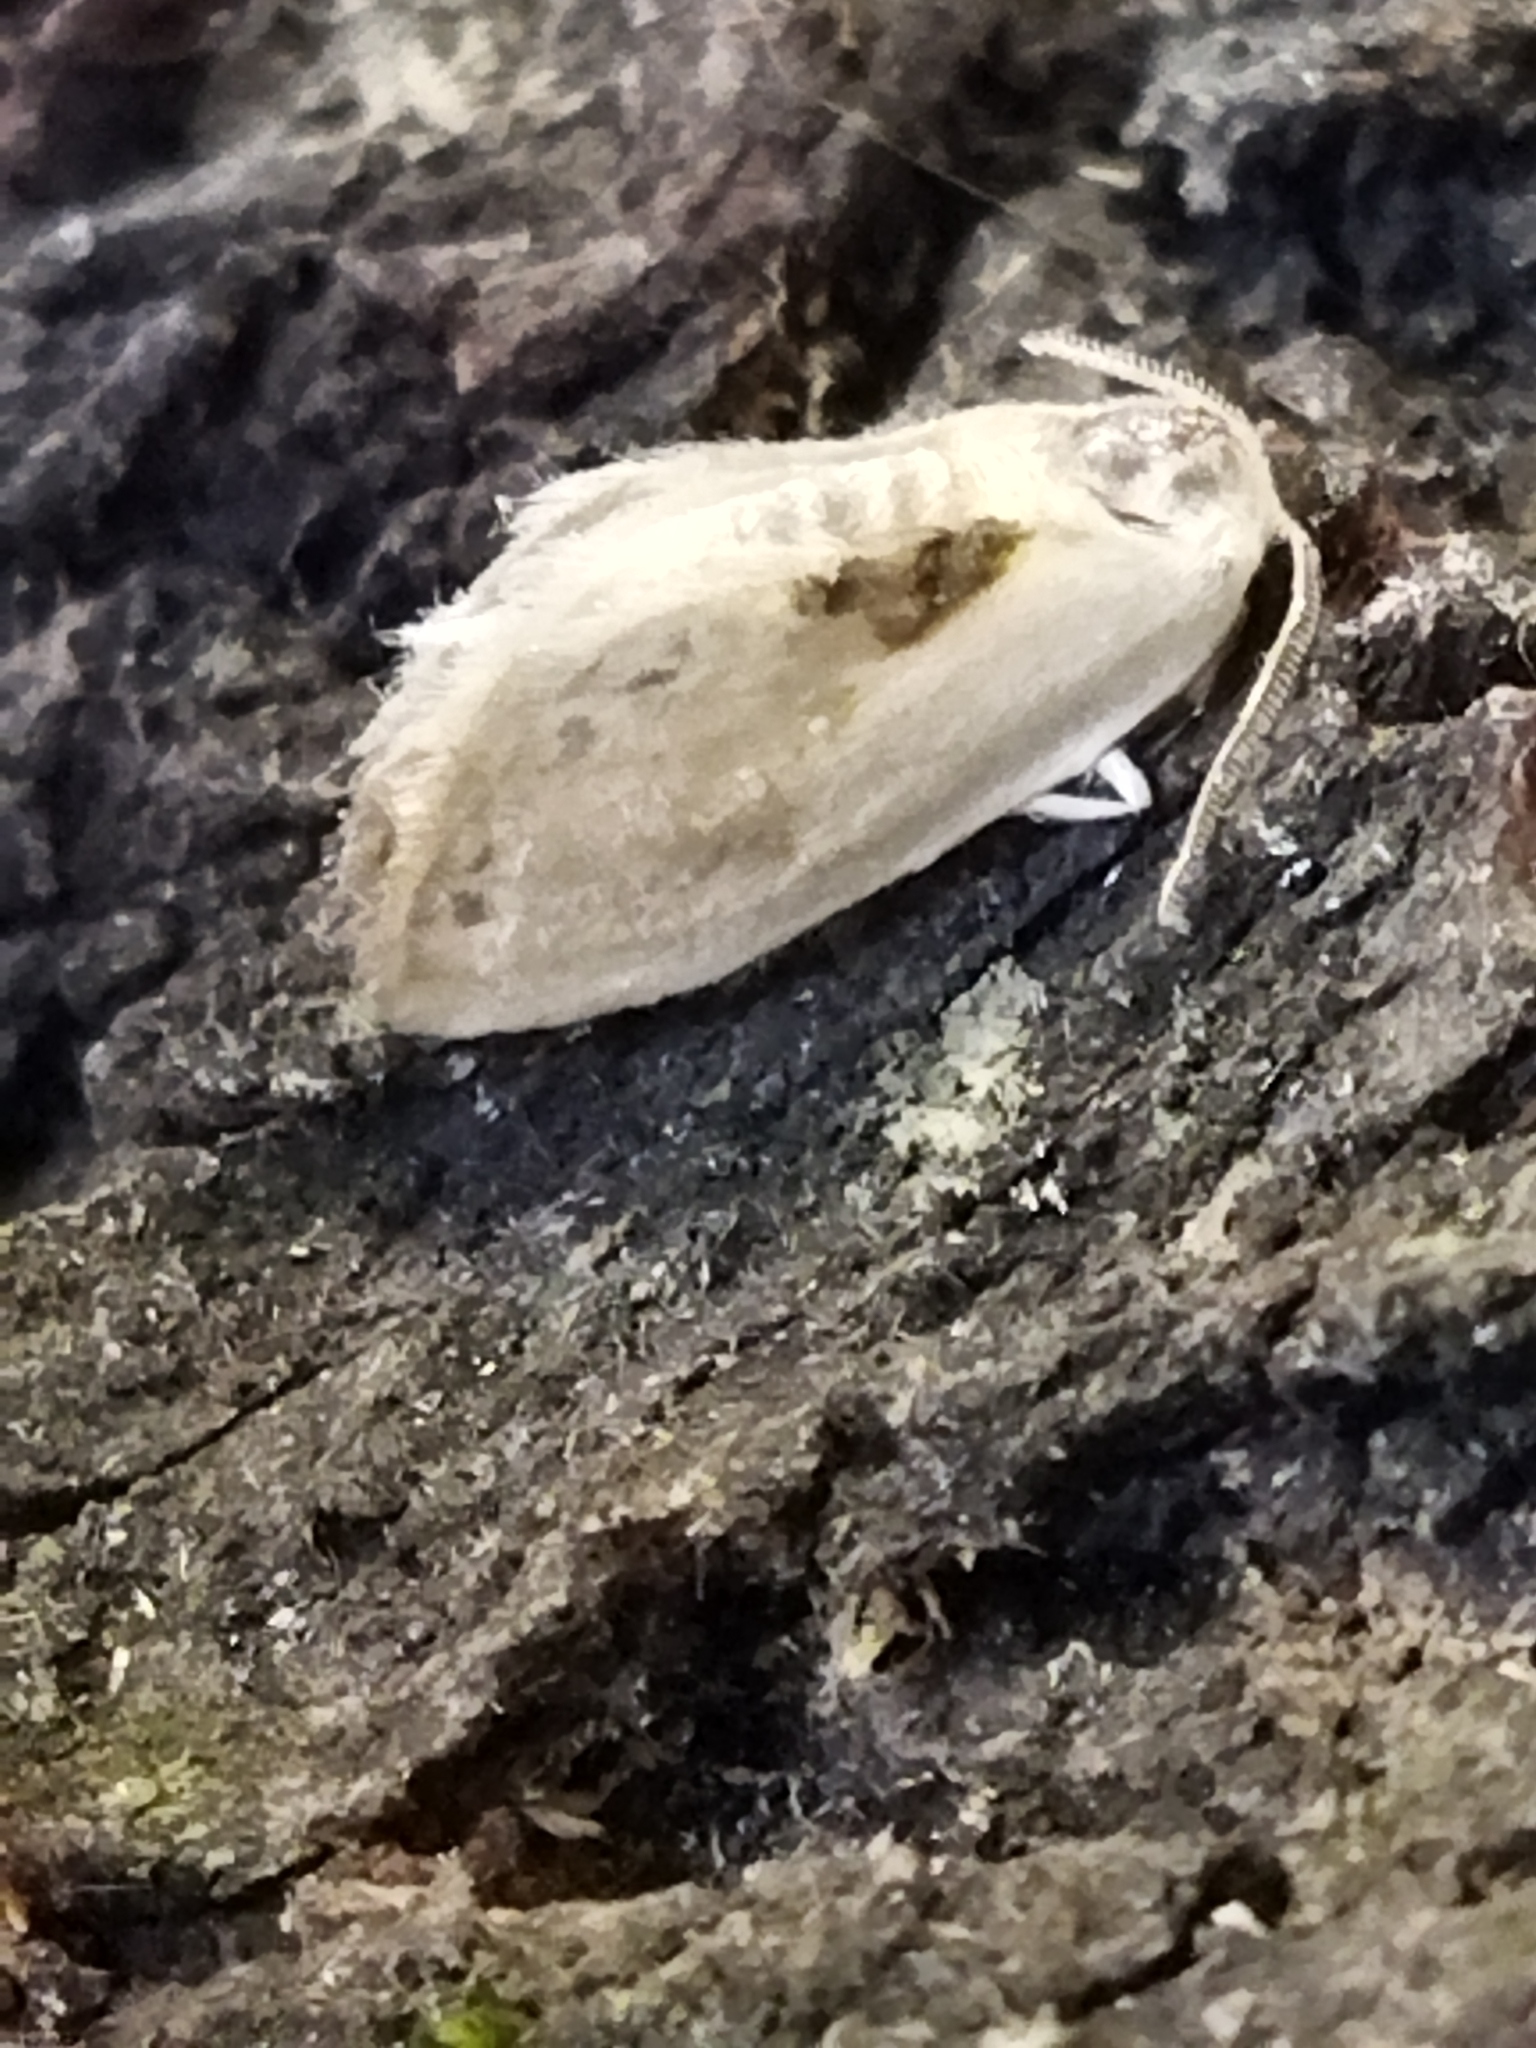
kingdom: Animalia
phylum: Arthropoda
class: Insecta
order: Lepidoptera
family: Drepanidae
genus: Cilix
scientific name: Cilix
